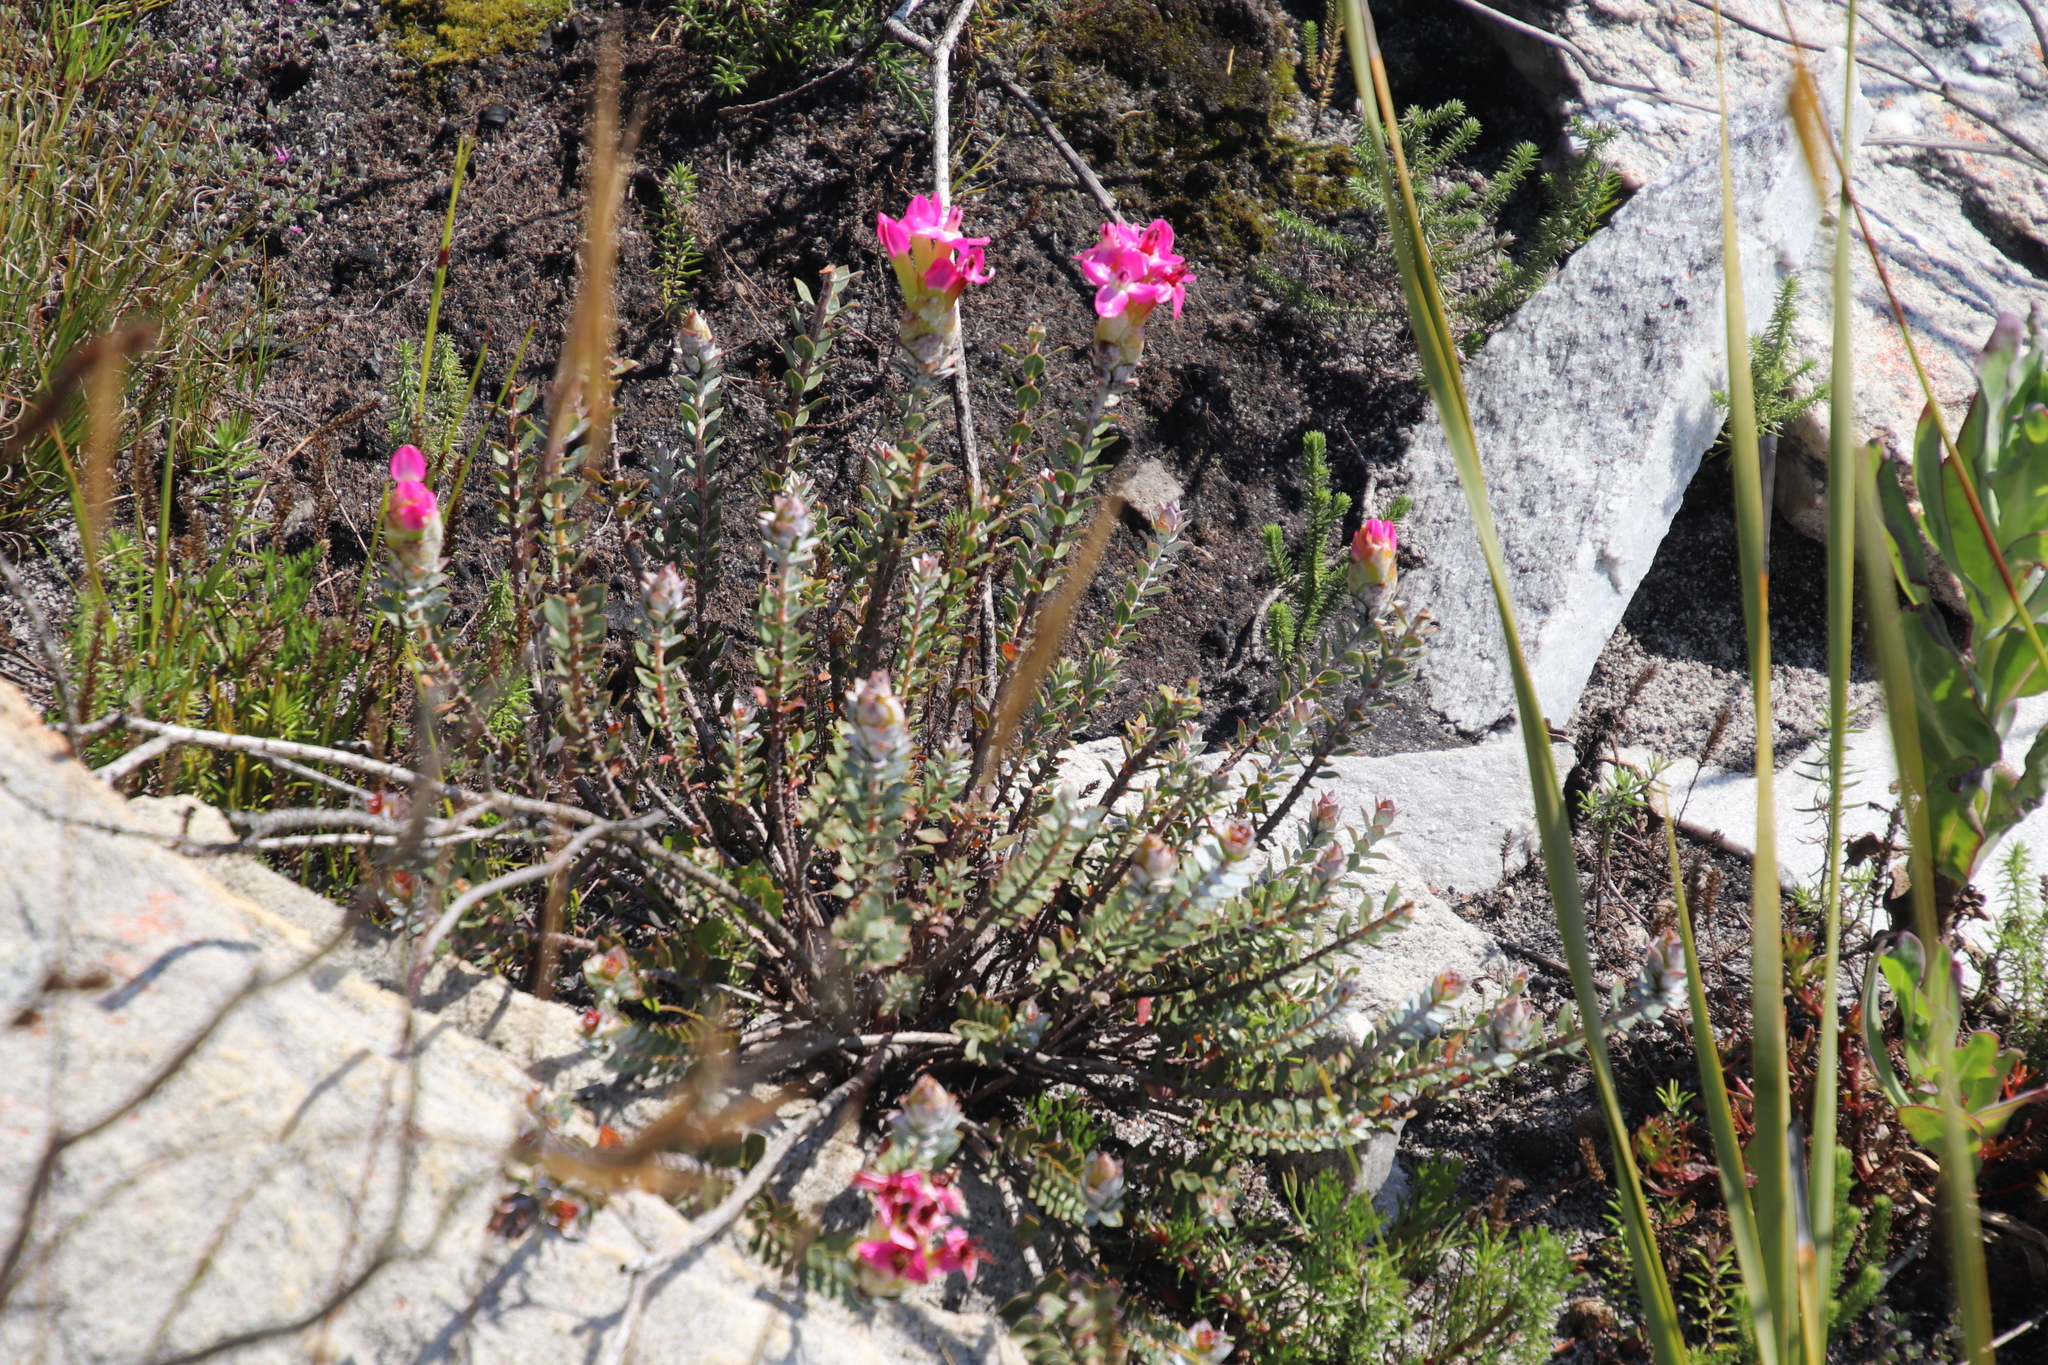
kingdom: Plantae
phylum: Tracheophyta
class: Magnoliopsida
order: Myrtales
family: Penaeaceae
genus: Saltera
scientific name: Saltera sarcocolla
